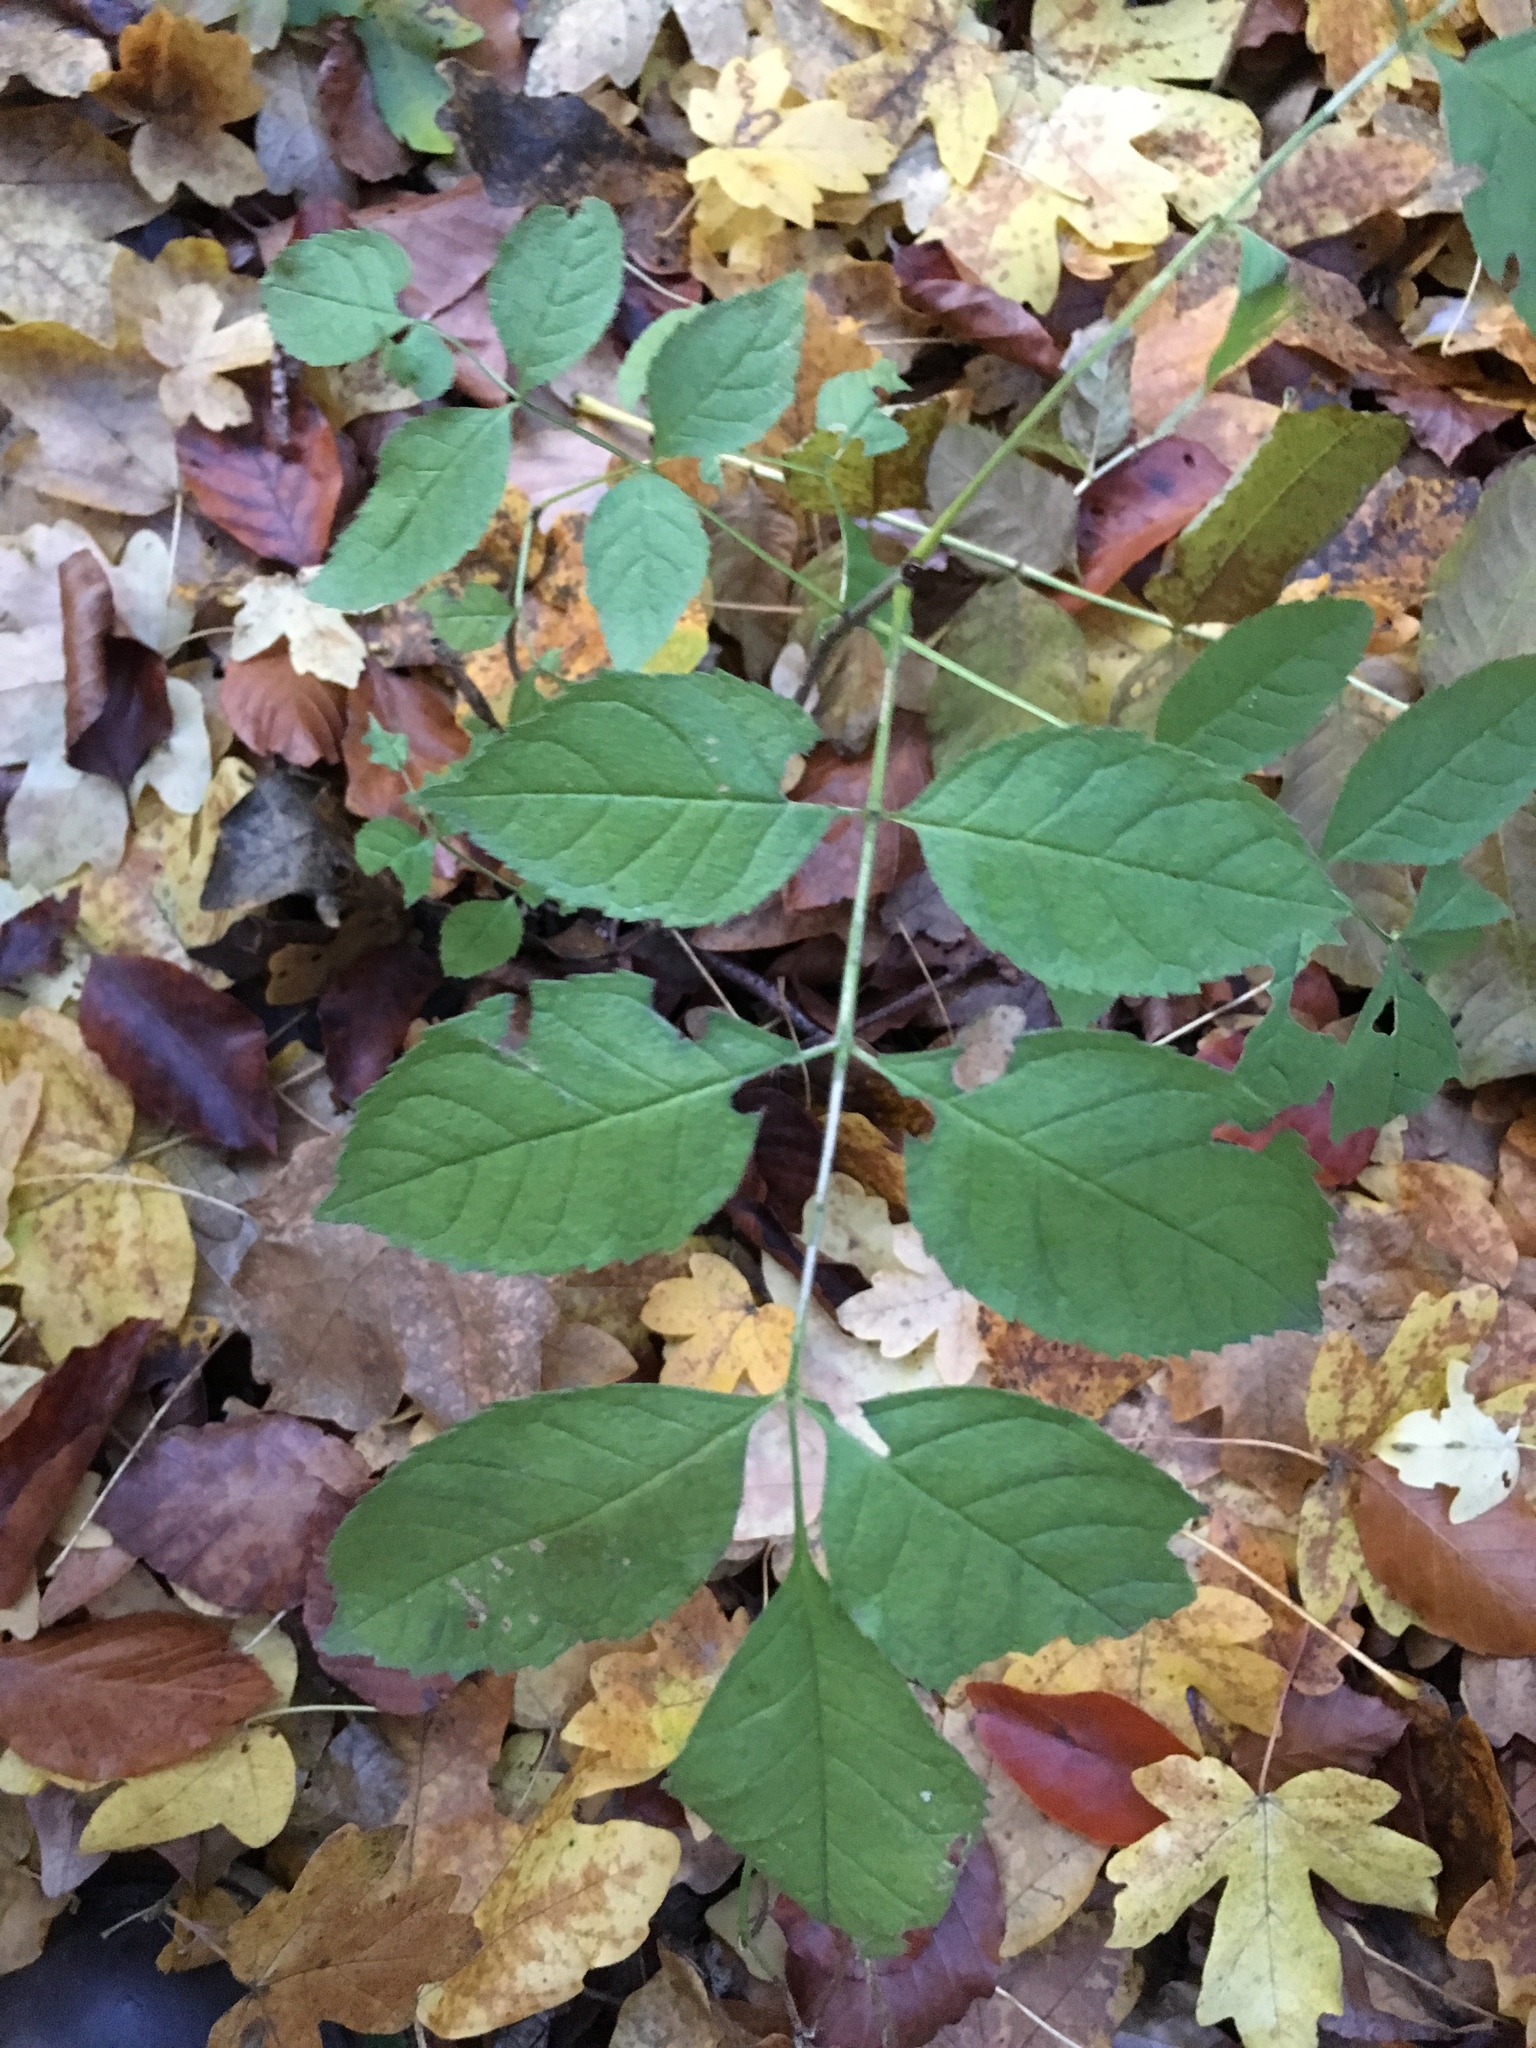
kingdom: Plantae
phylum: Tracheophyta
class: Magnoliopsida
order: Lamiales
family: Oleaceae
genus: Fraxinus
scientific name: Fraxinus excelsior
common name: European ash
